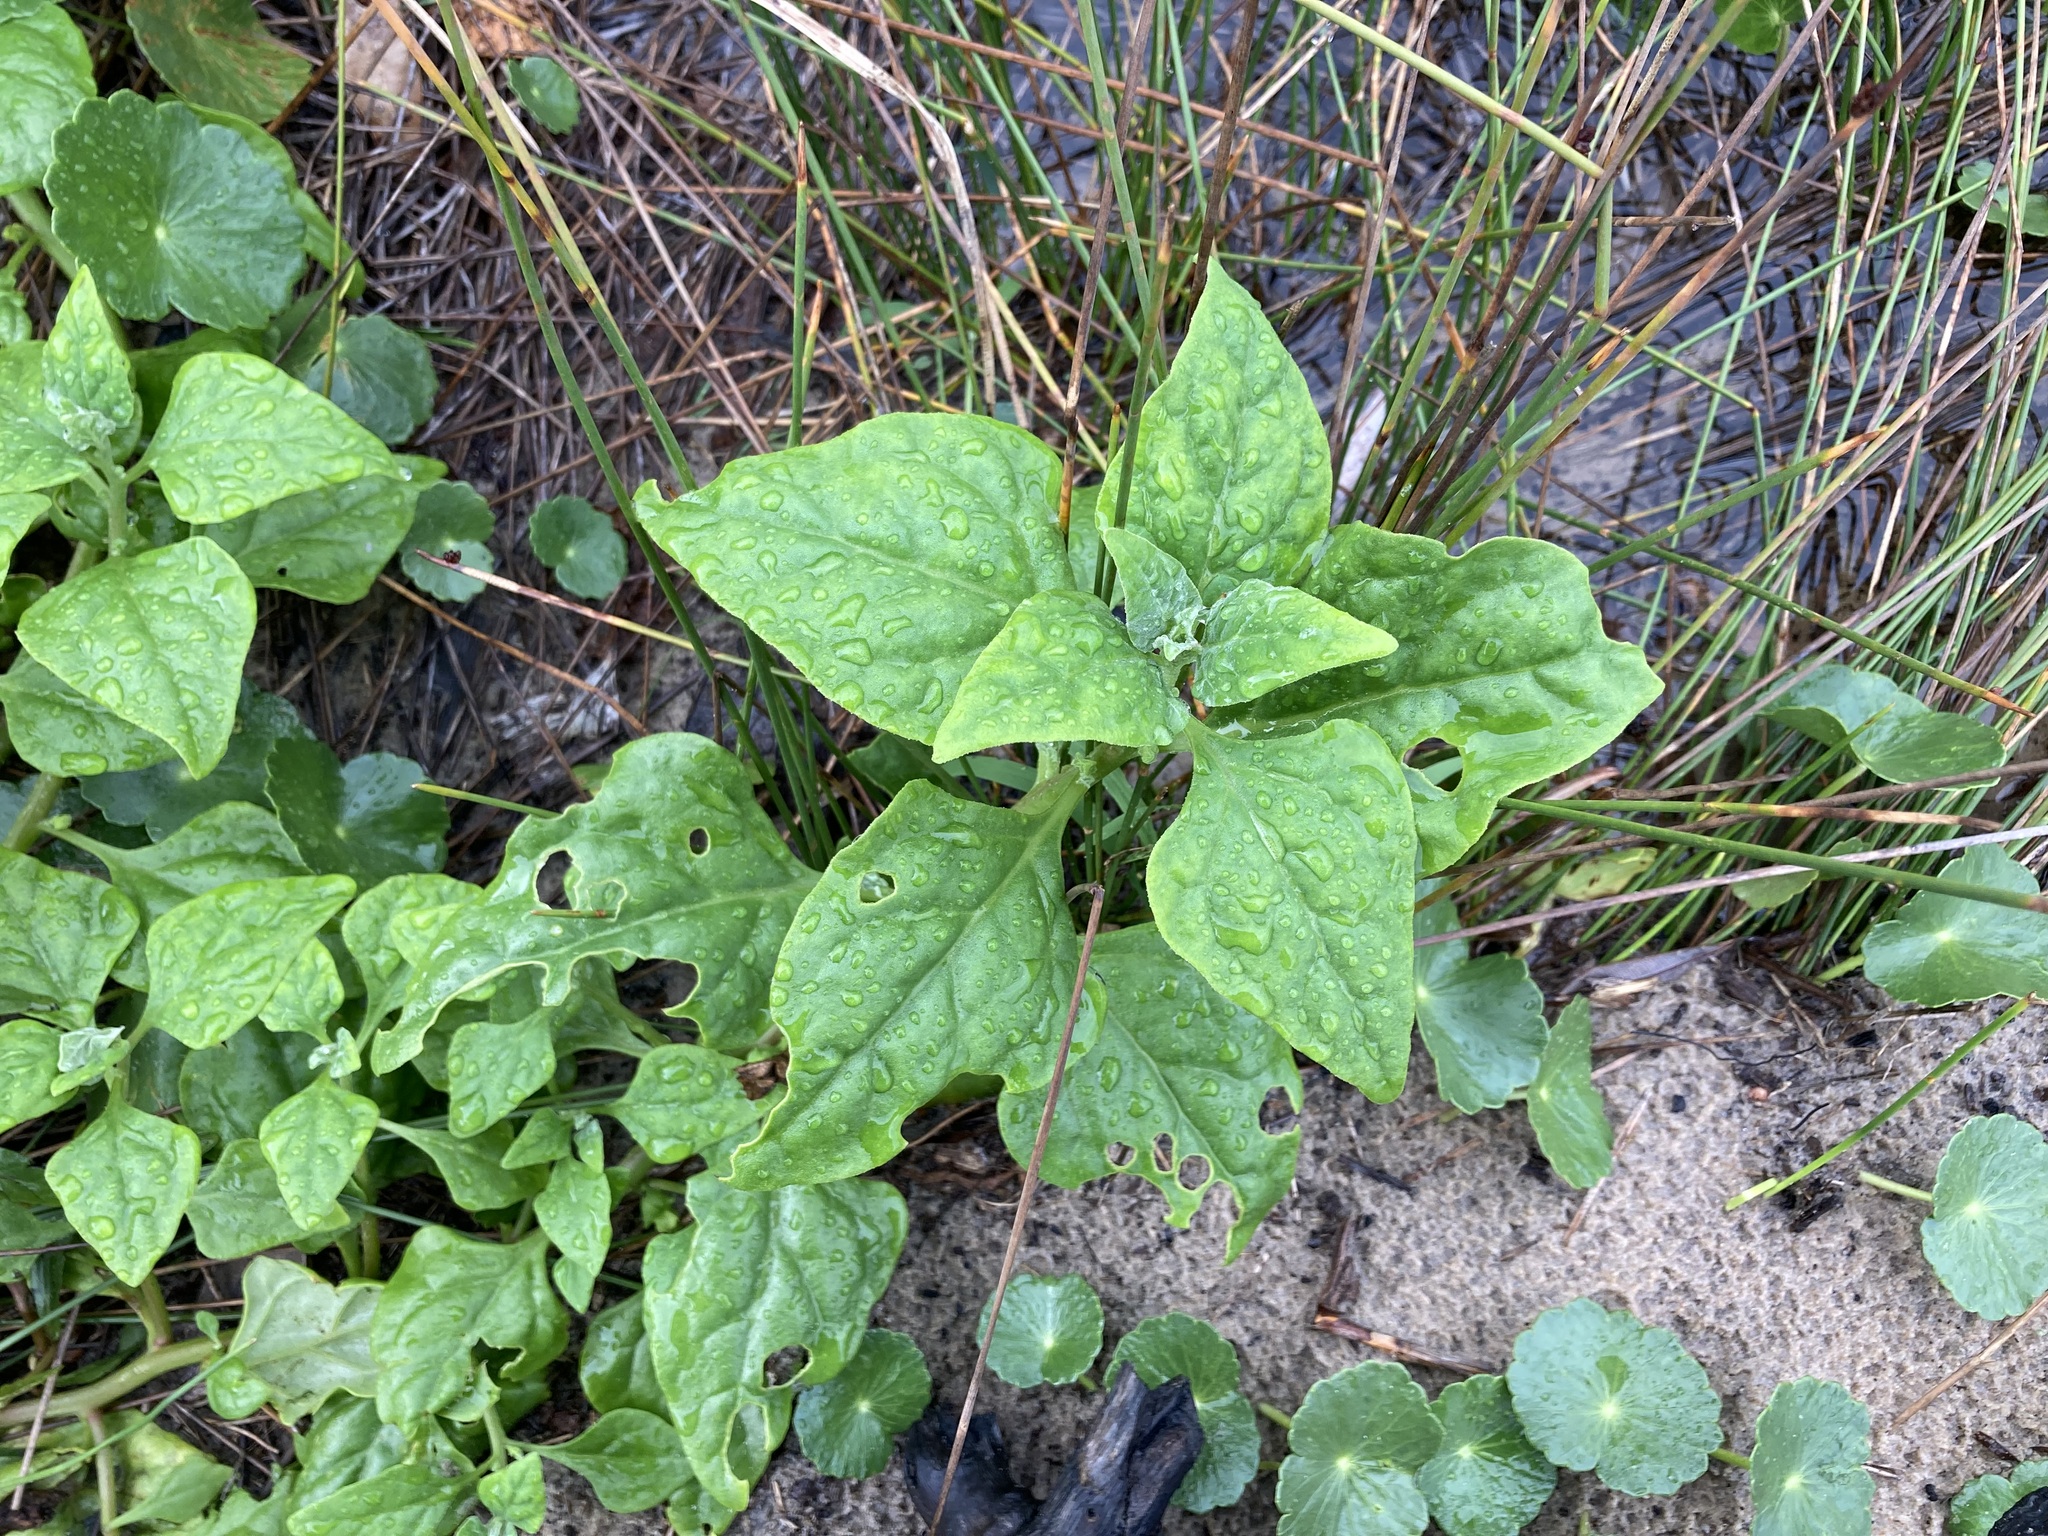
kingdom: Plantae
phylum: Tracheophyta
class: Magnoliopsida
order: Caryophyllales
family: Aizoaceae
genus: Tetragonia
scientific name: Tetragonia tetragonoides
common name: New zealand-spinach
